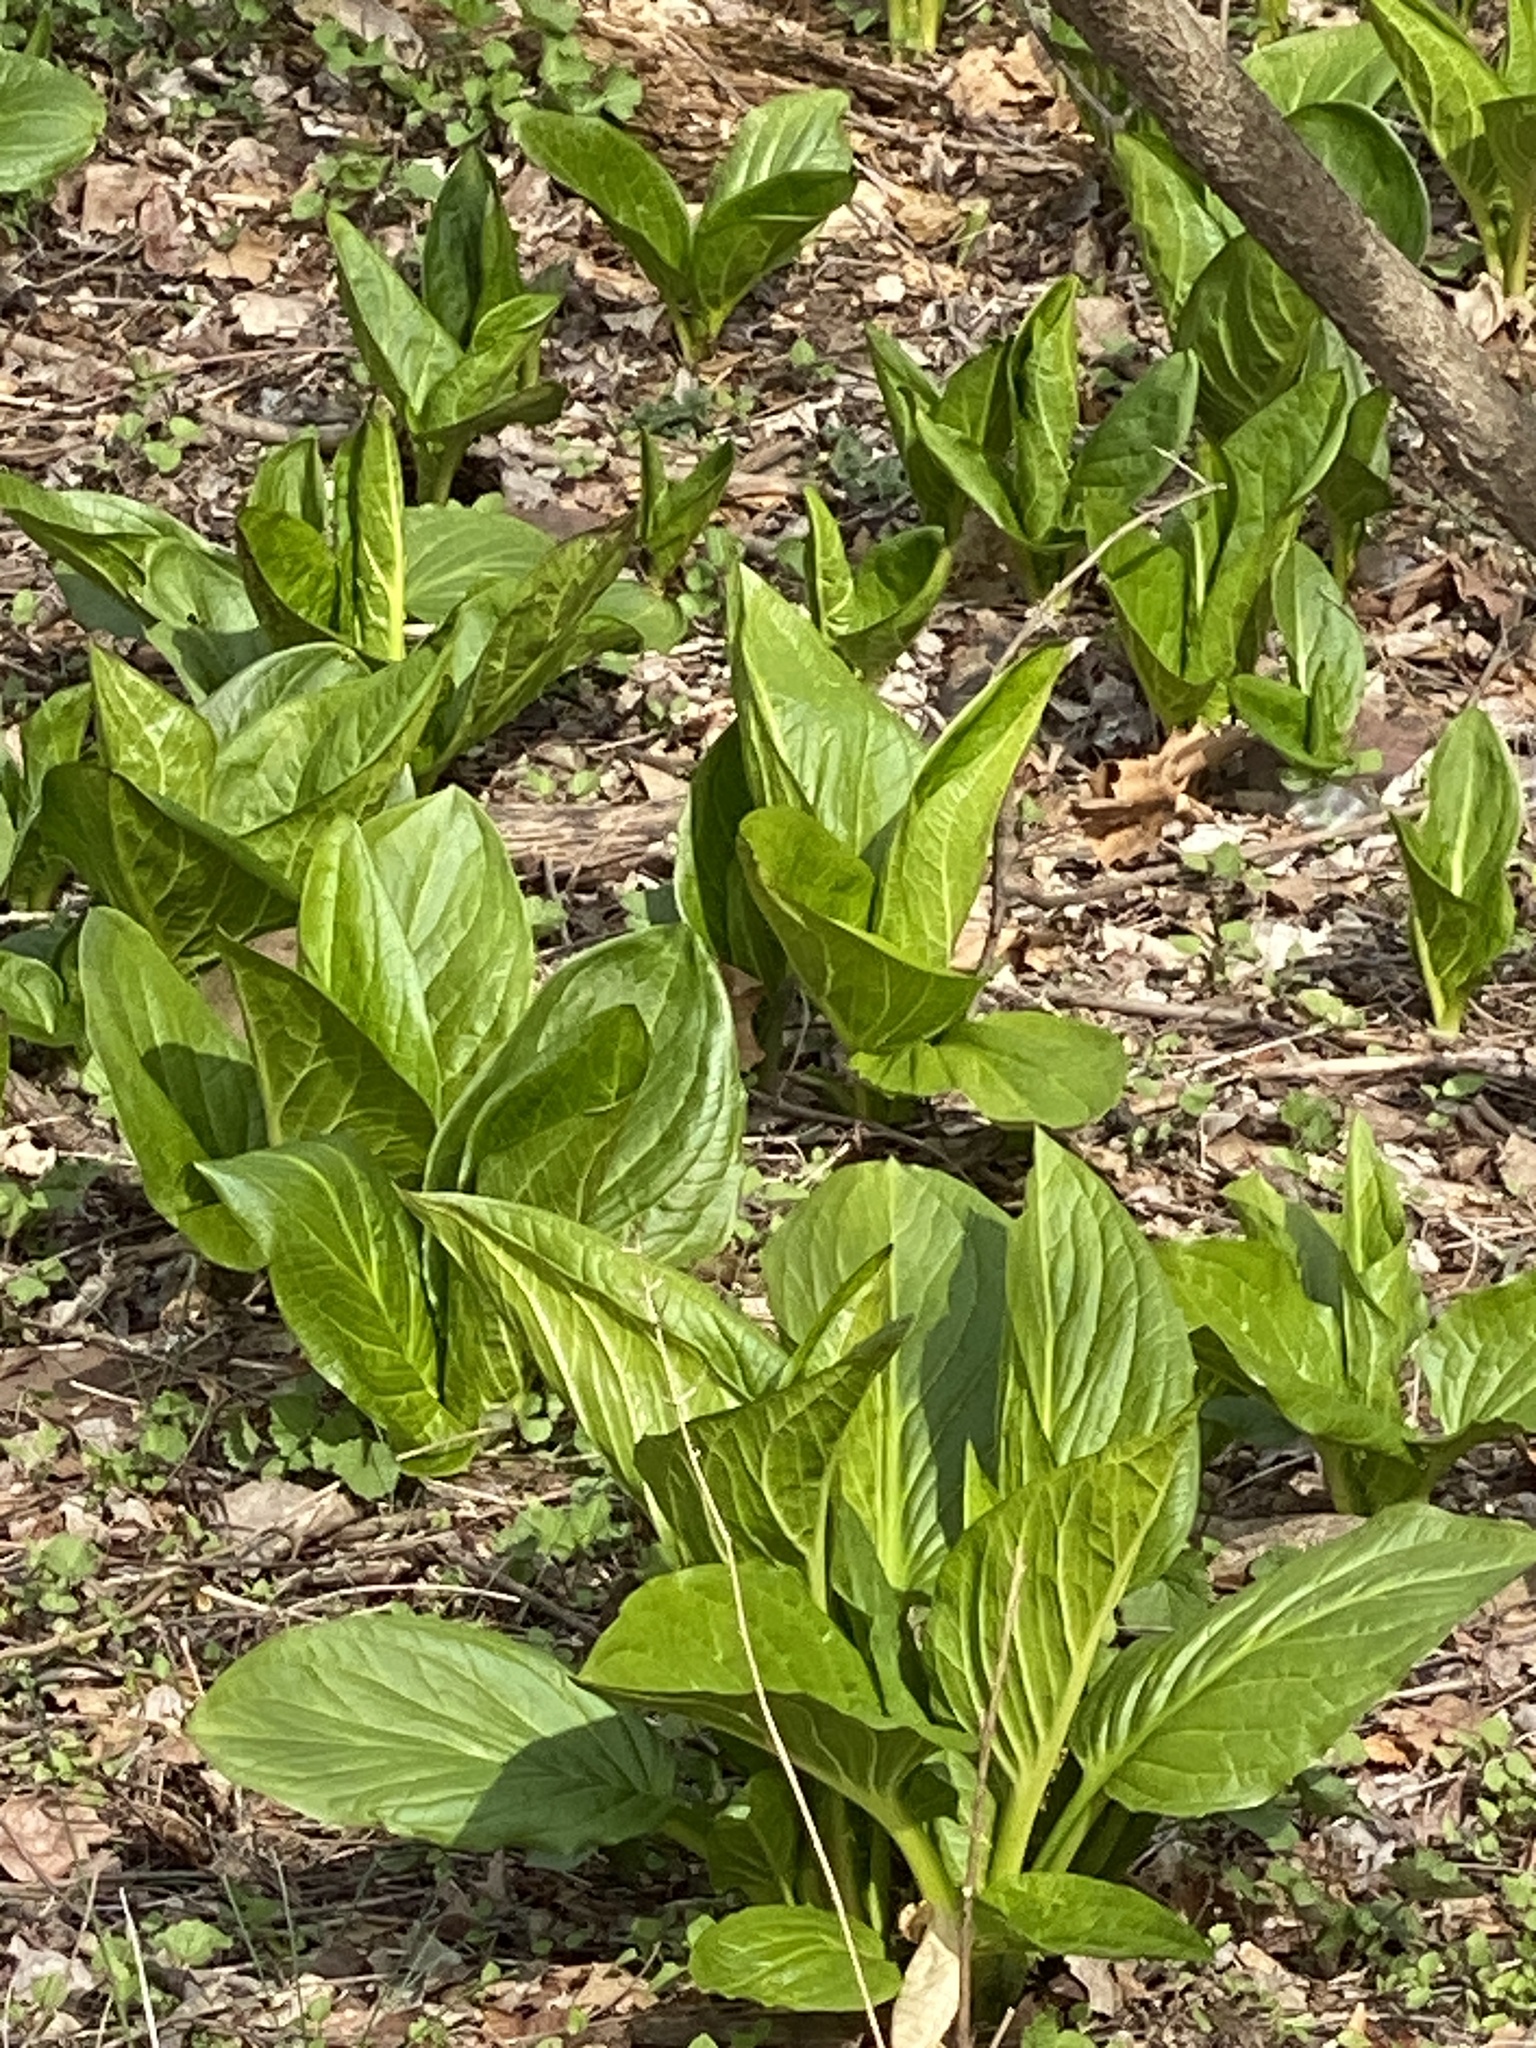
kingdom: Plantae
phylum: Tracheophyta
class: Liliopsida
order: Alismatales
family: Araceae
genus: Symplocarpus
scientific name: Symplocarpus foetidus
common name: Eastern skunk cabbage
